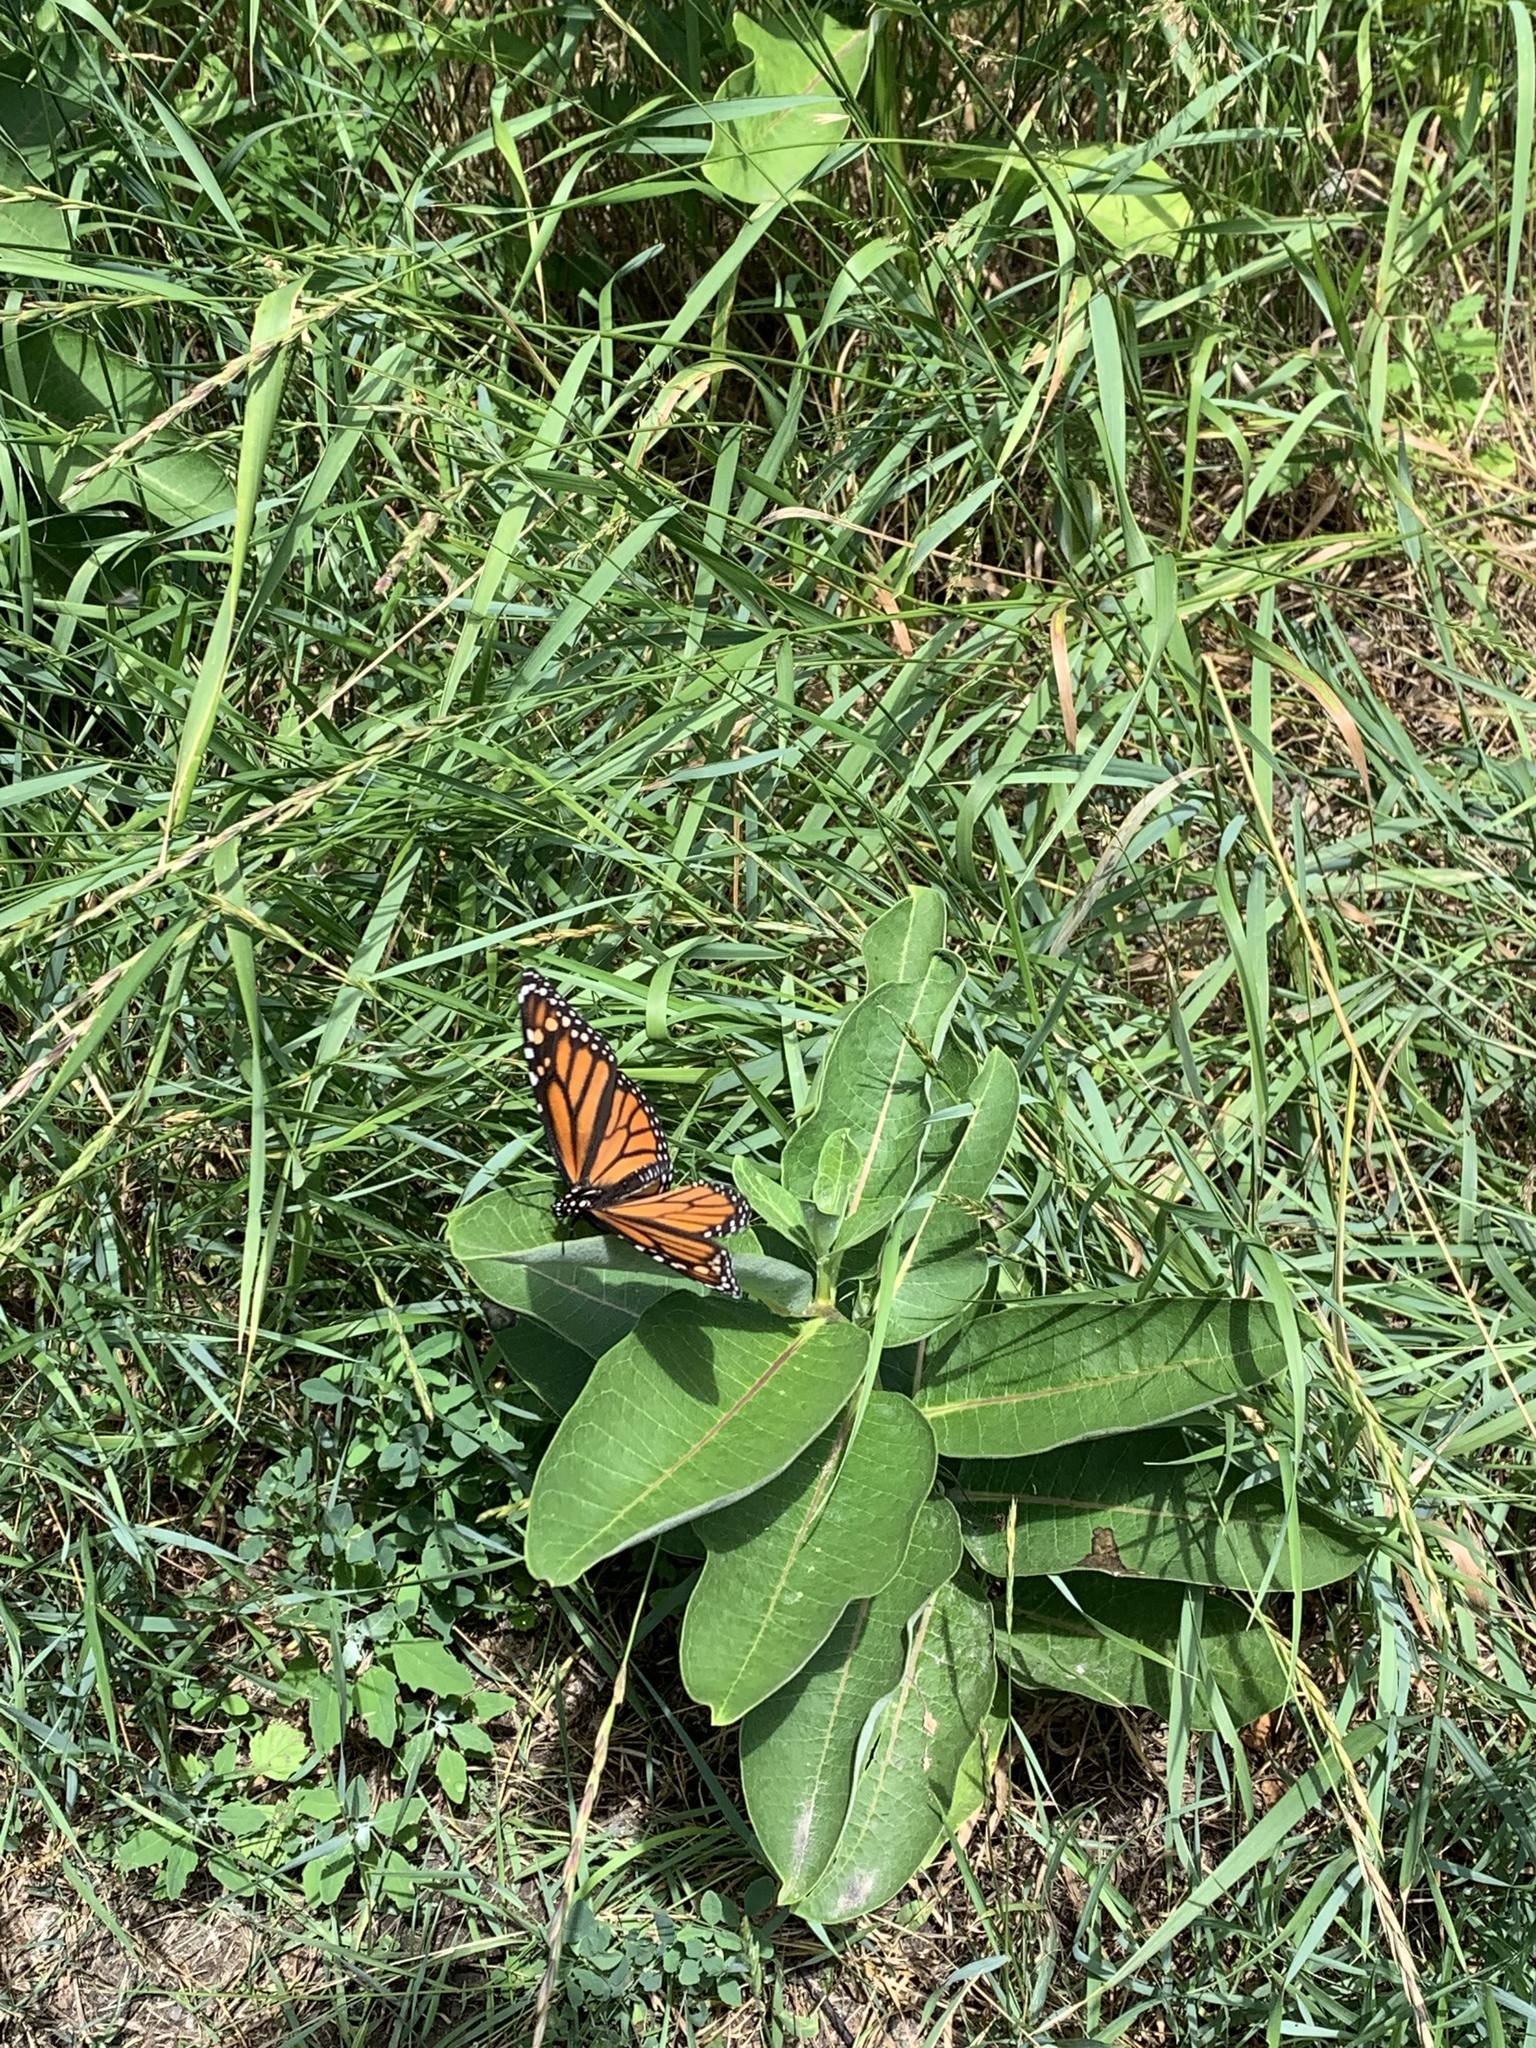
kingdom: Animalia
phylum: Arthropoda
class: Insecta
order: Lepidoptera
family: Nymphalidae
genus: Danaus
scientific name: Danaus plexippus
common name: Monarch
